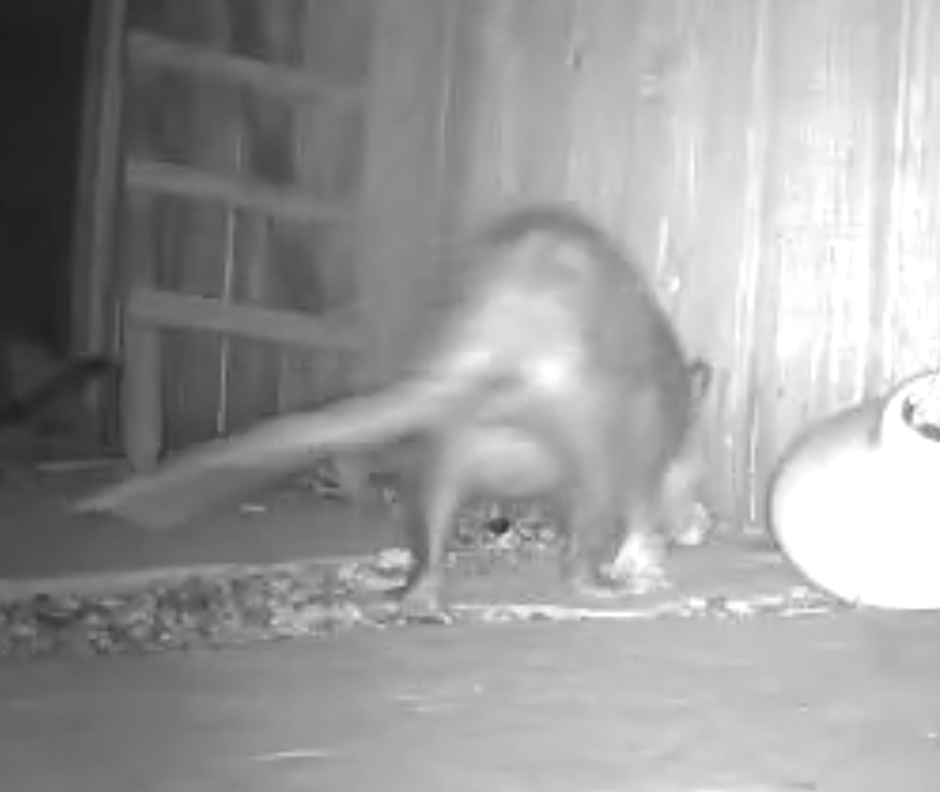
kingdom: Animalia
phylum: Chordata
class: Mammalia
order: Didelphimorphia
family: Didelphidae
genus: Didelphis
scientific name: Didelphis virginiana
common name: Virginia opossum
